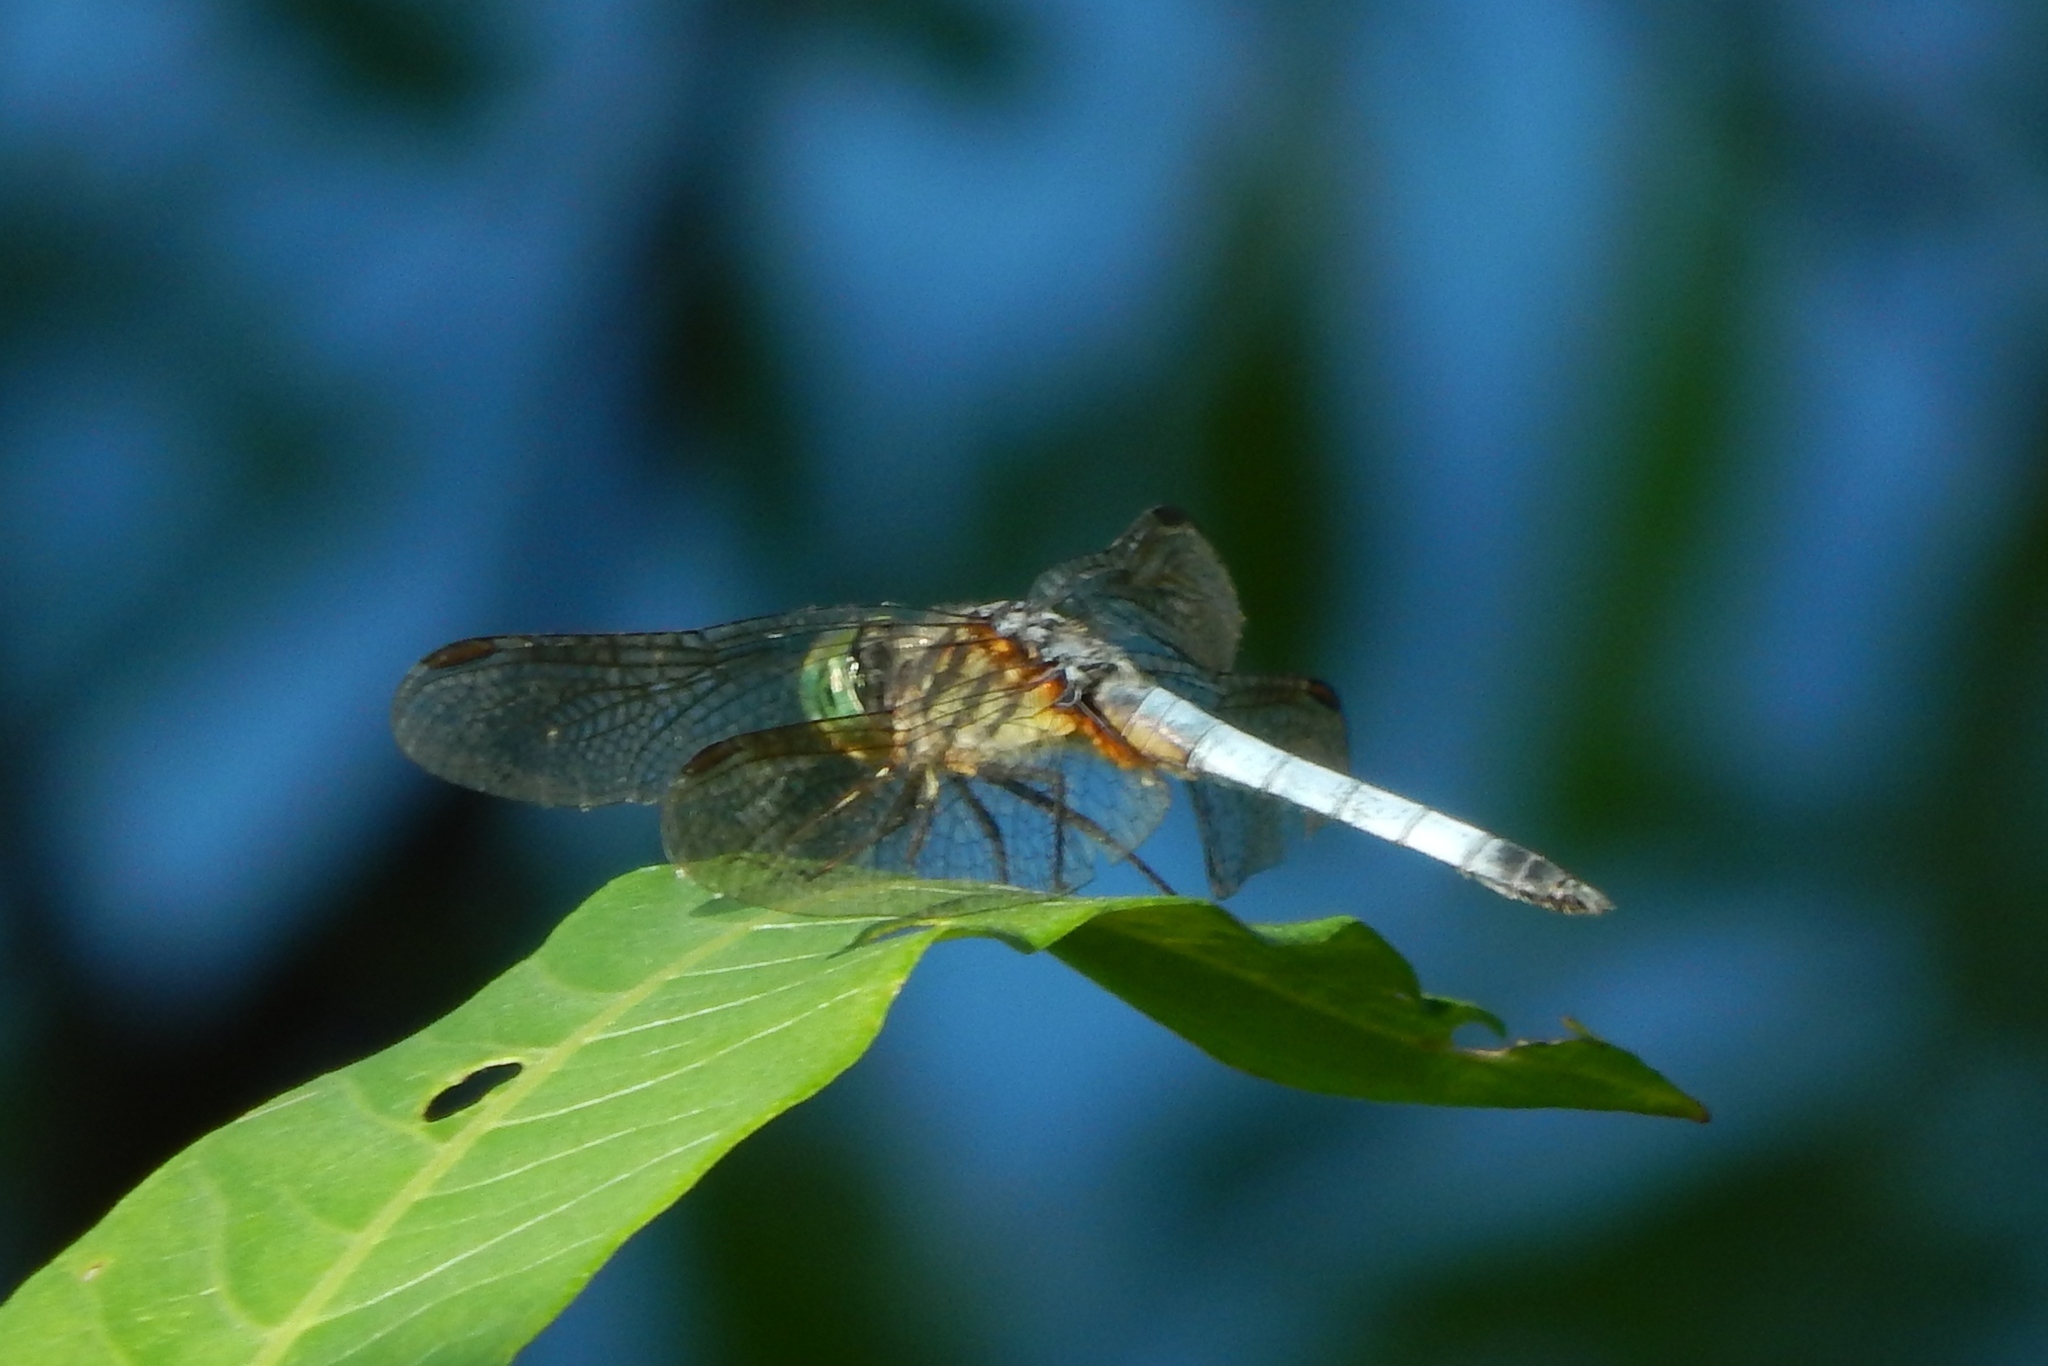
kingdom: Animalia
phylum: Arthropoda
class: Insecta
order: Odonata
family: Libellulidae
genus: Pachydiplax
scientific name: Pachydiplax longipennis
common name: Blue dasher
